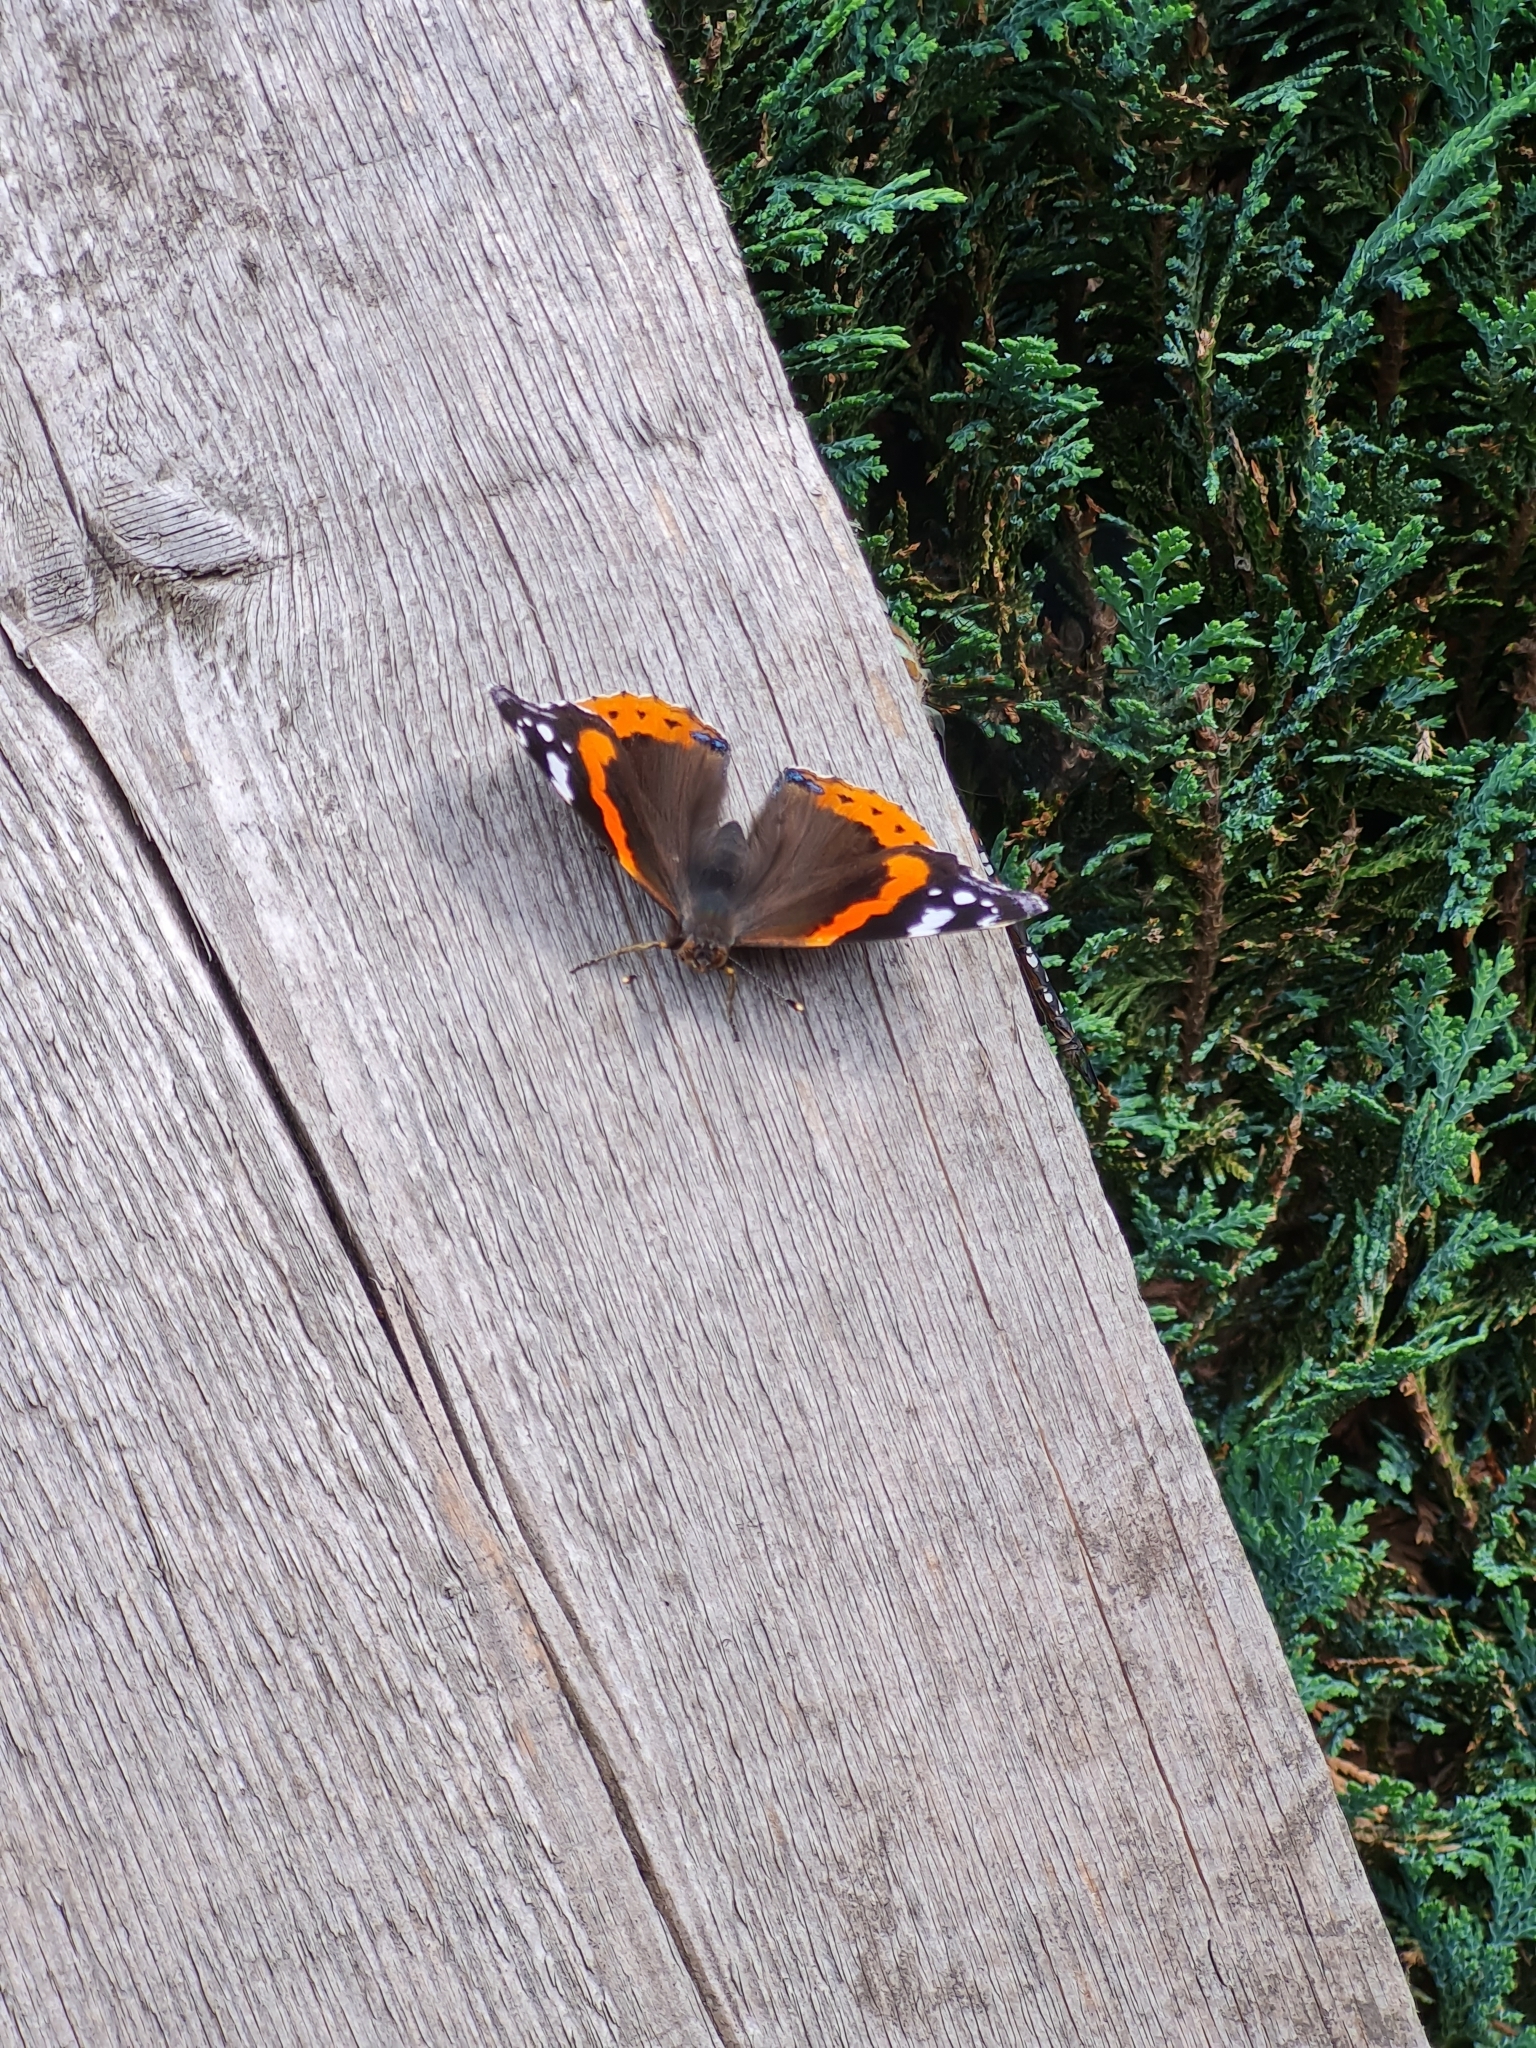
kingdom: Animalia
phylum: Arthropoda
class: Insecta
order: Lepidoptera
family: Nymphalidae
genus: Vanessa
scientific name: Vanessa atalanta
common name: Red admiral
